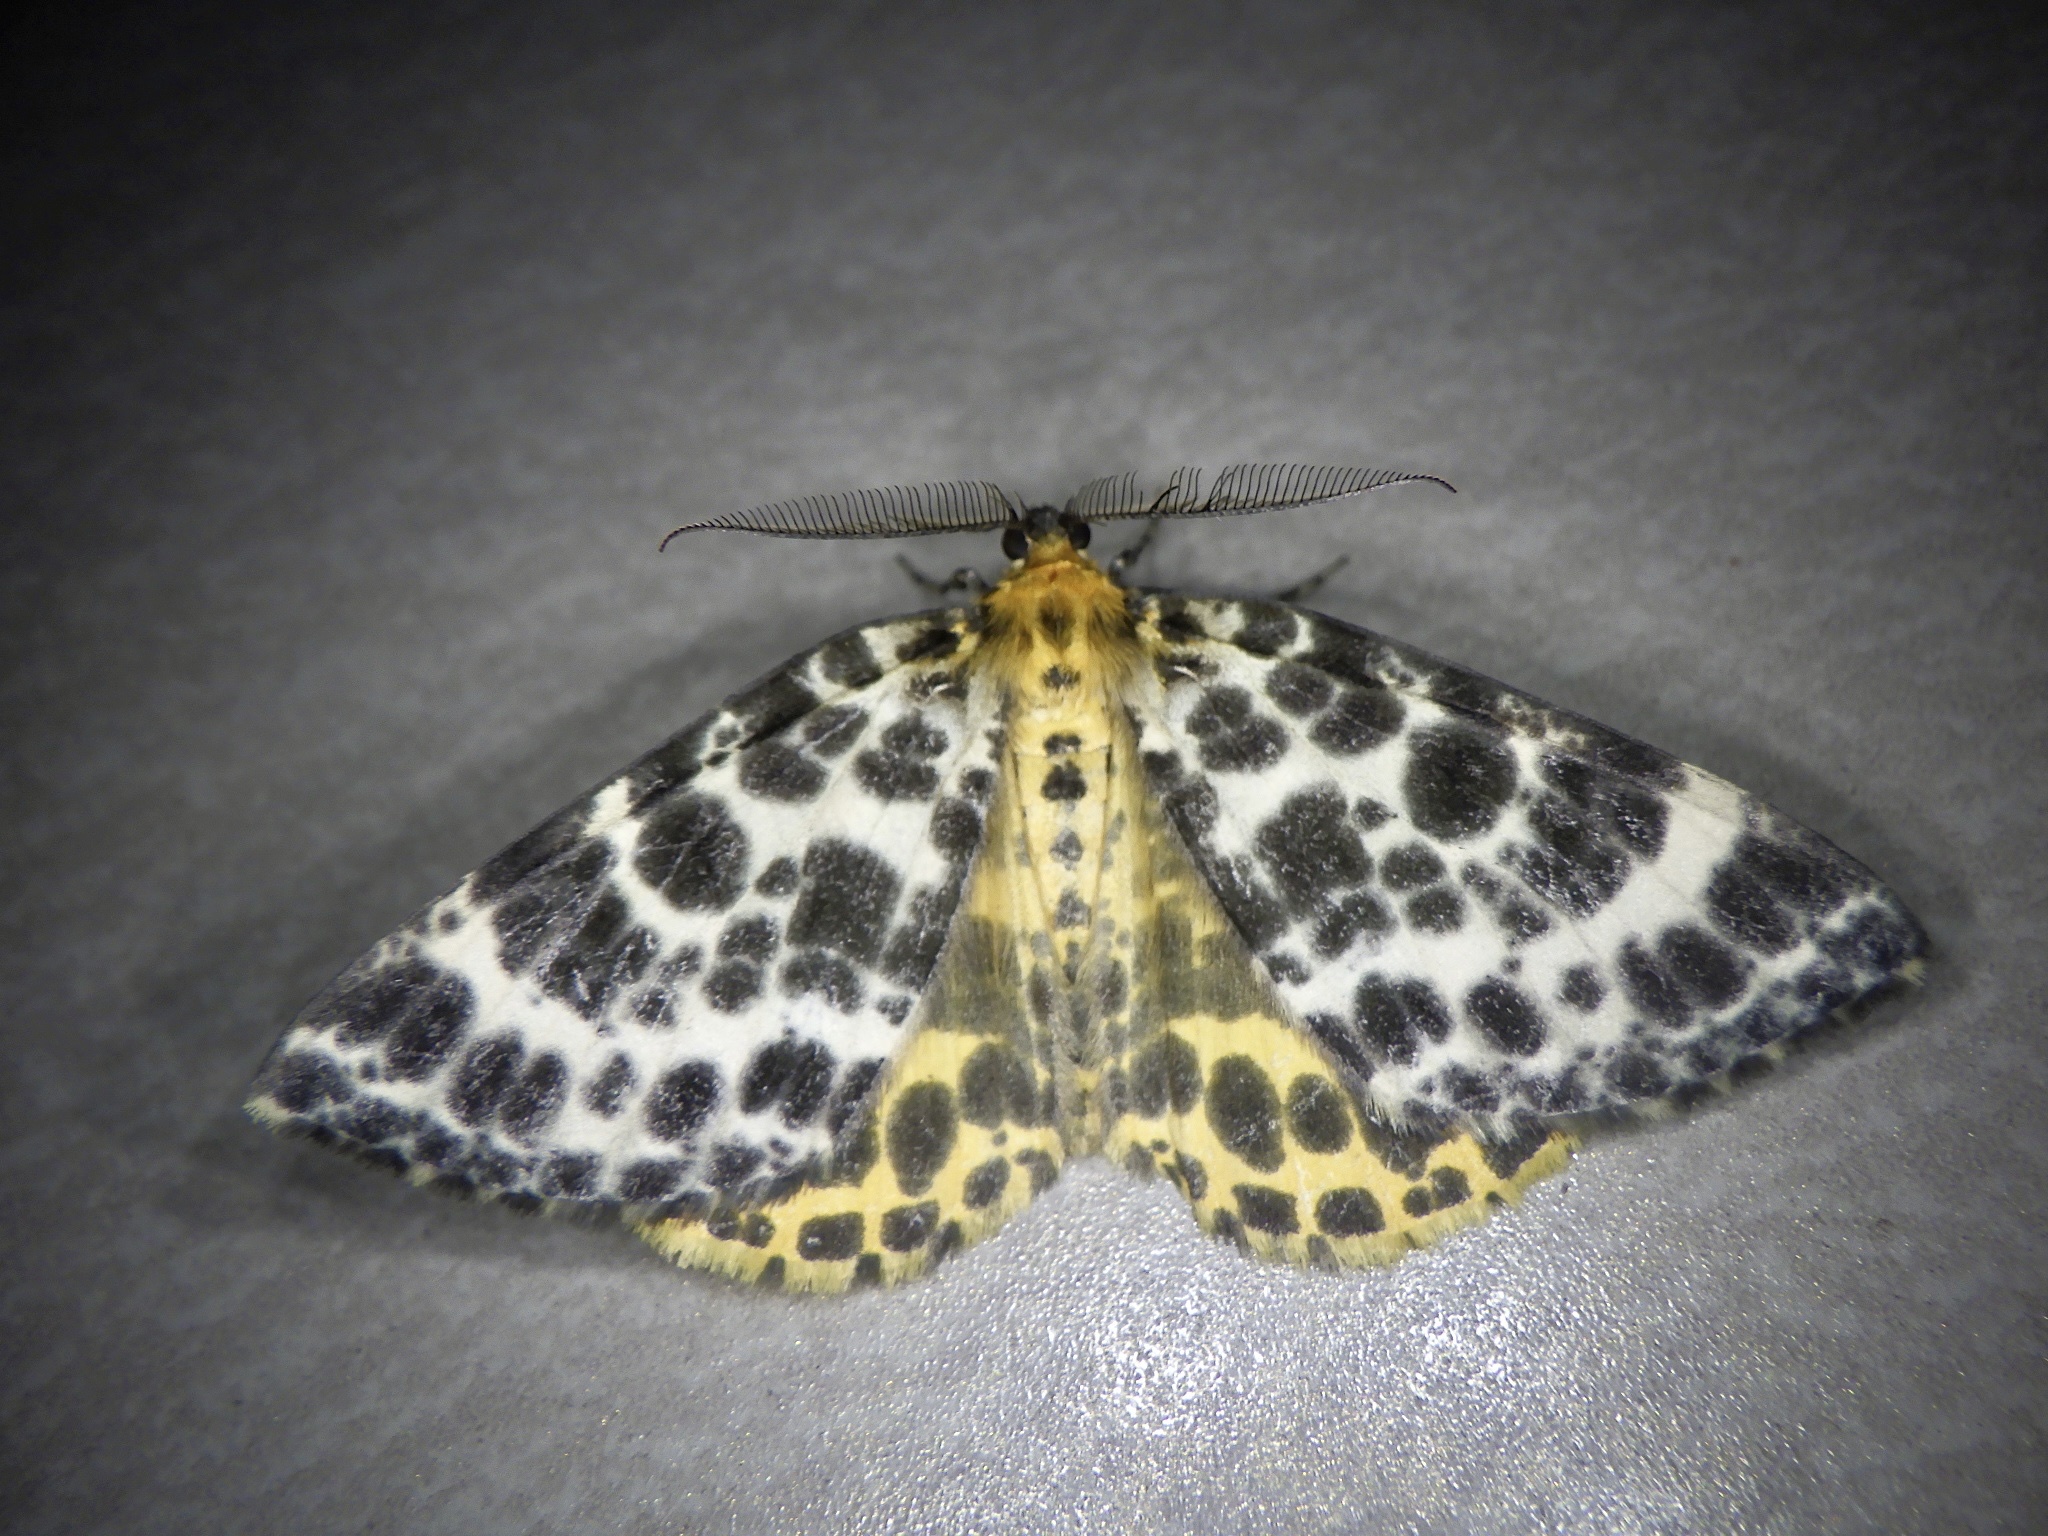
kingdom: Animalia
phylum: Arthropoda
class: Insecta
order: Lepidoptera
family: Geometridae
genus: Arichanna
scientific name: Arichanna melanaria
